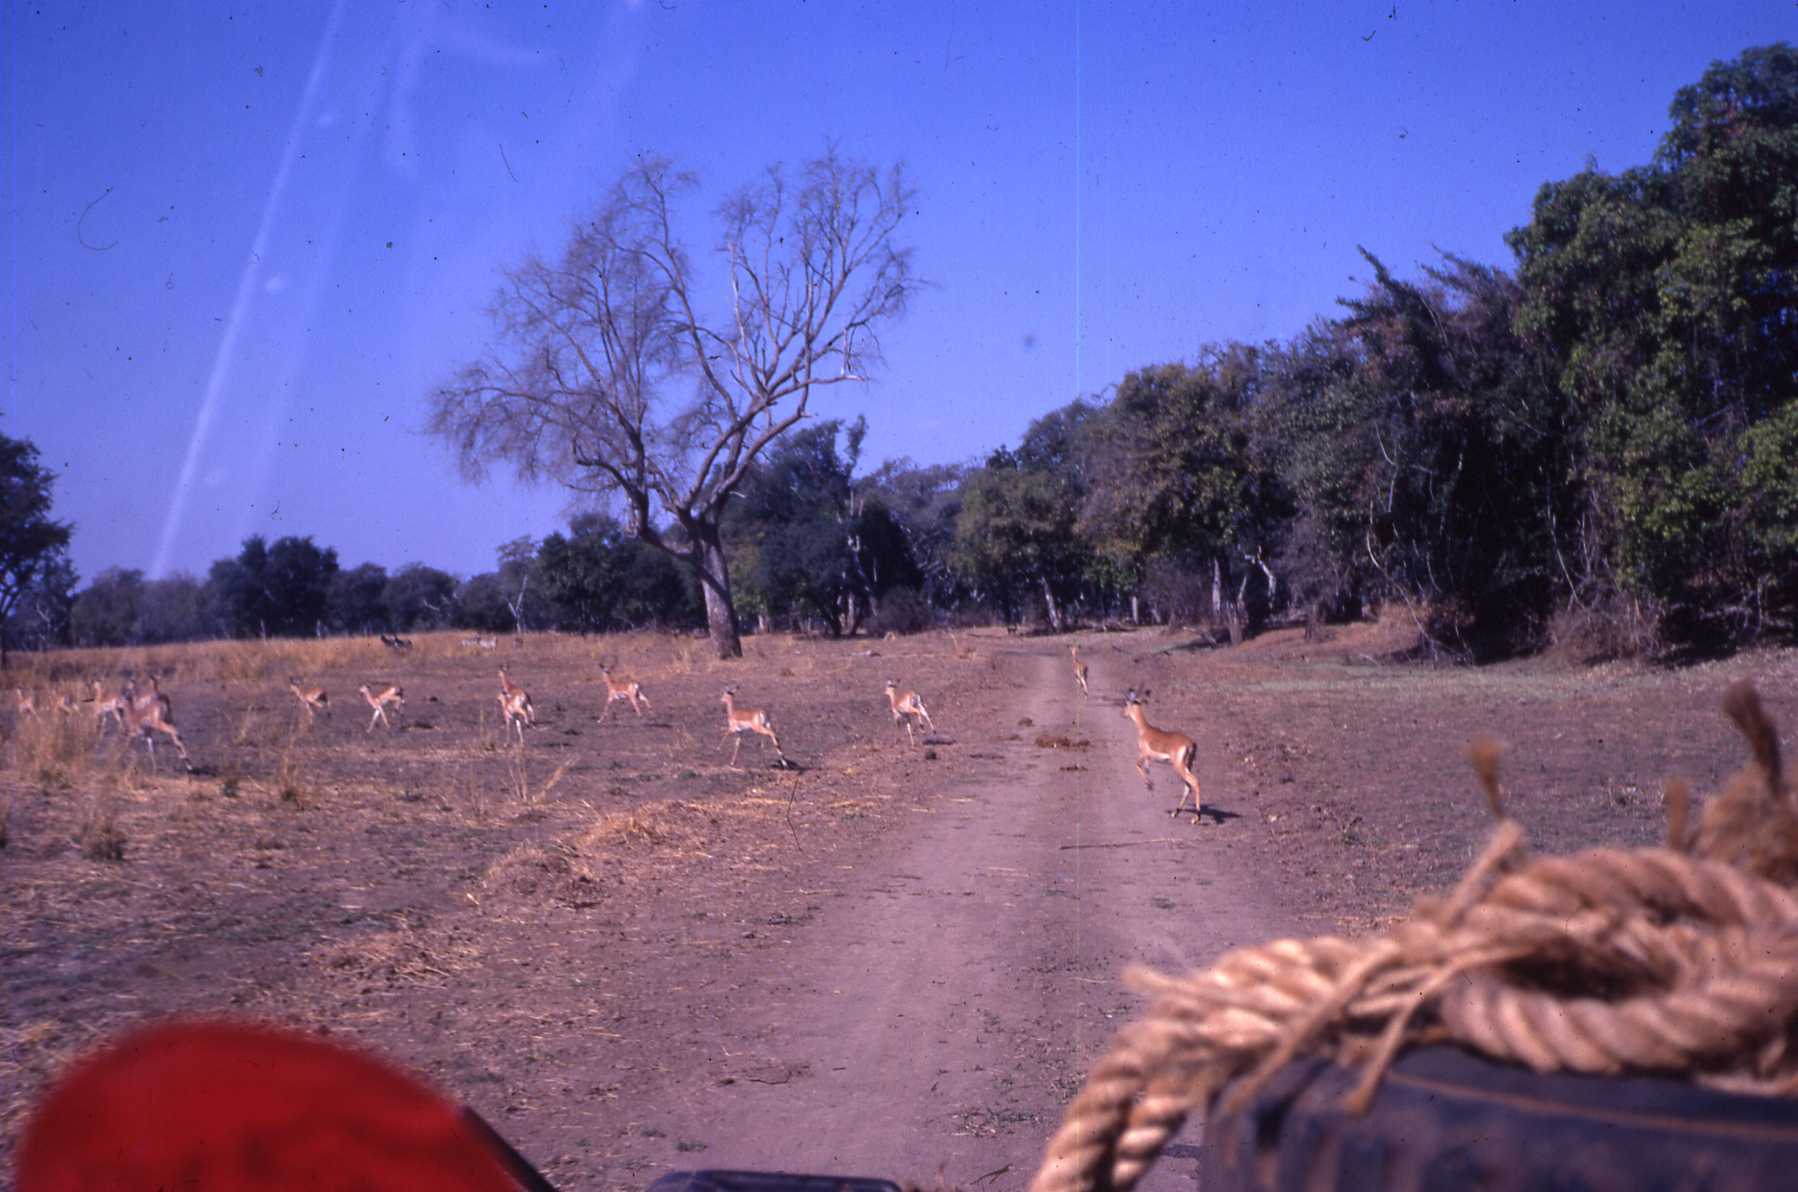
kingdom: Animalia
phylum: Chordata
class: Mammalia
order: Artiodactyla
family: Bovidae
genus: Aepyceros
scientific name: Aepyceros melampus
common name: Impala
